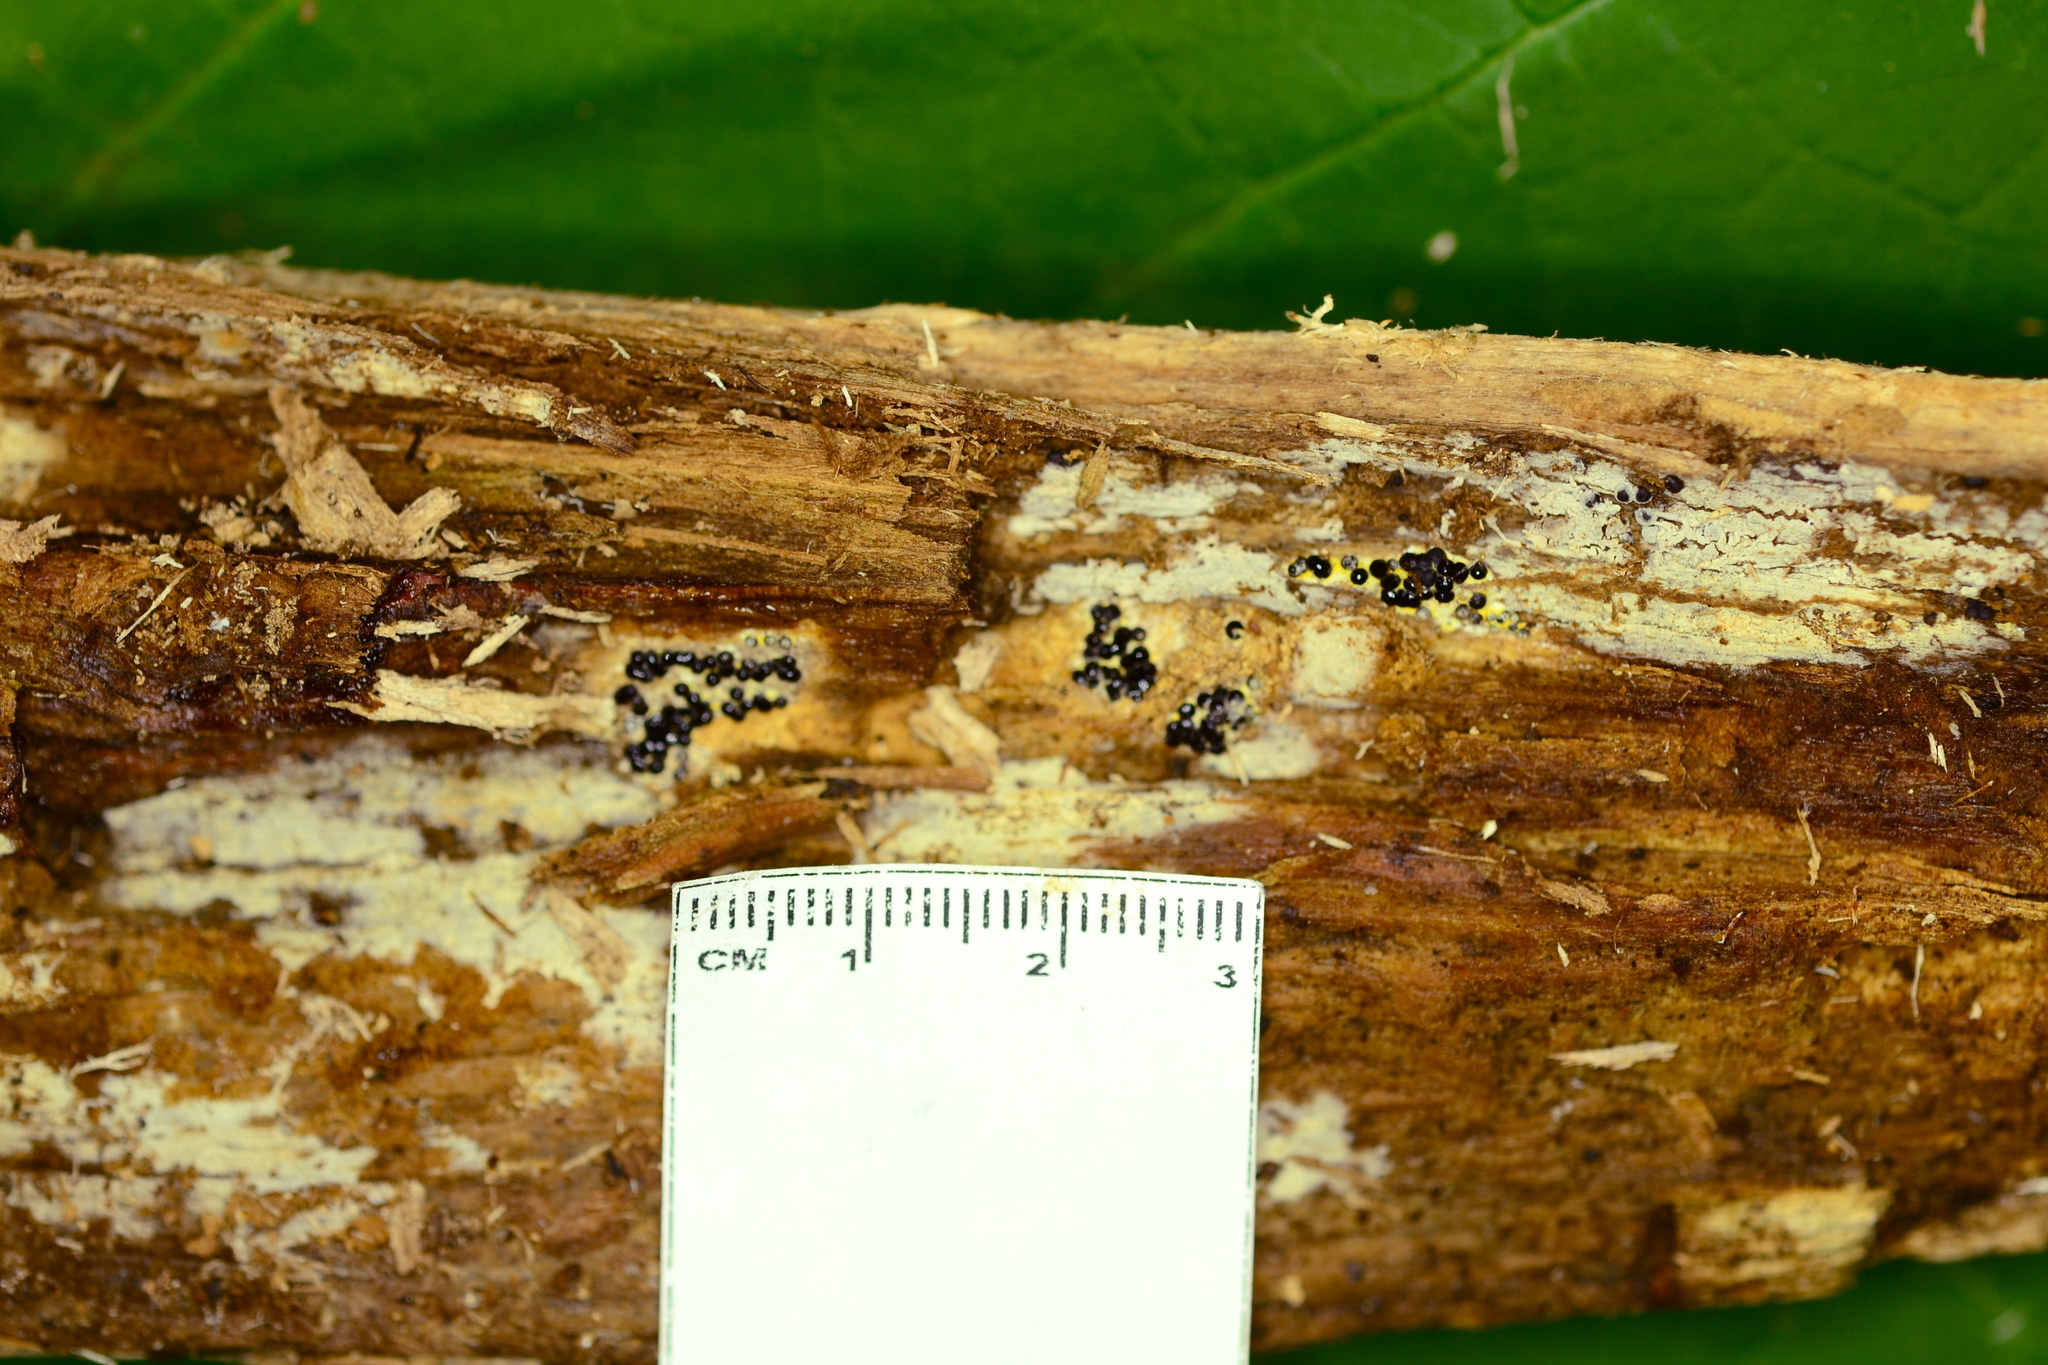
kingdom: Fungi
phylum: Ascomycota
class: Sordariomycetes
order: Xylariales
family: Xylariaceae
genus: Rosellinia
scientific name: Rosellinia subiculata
